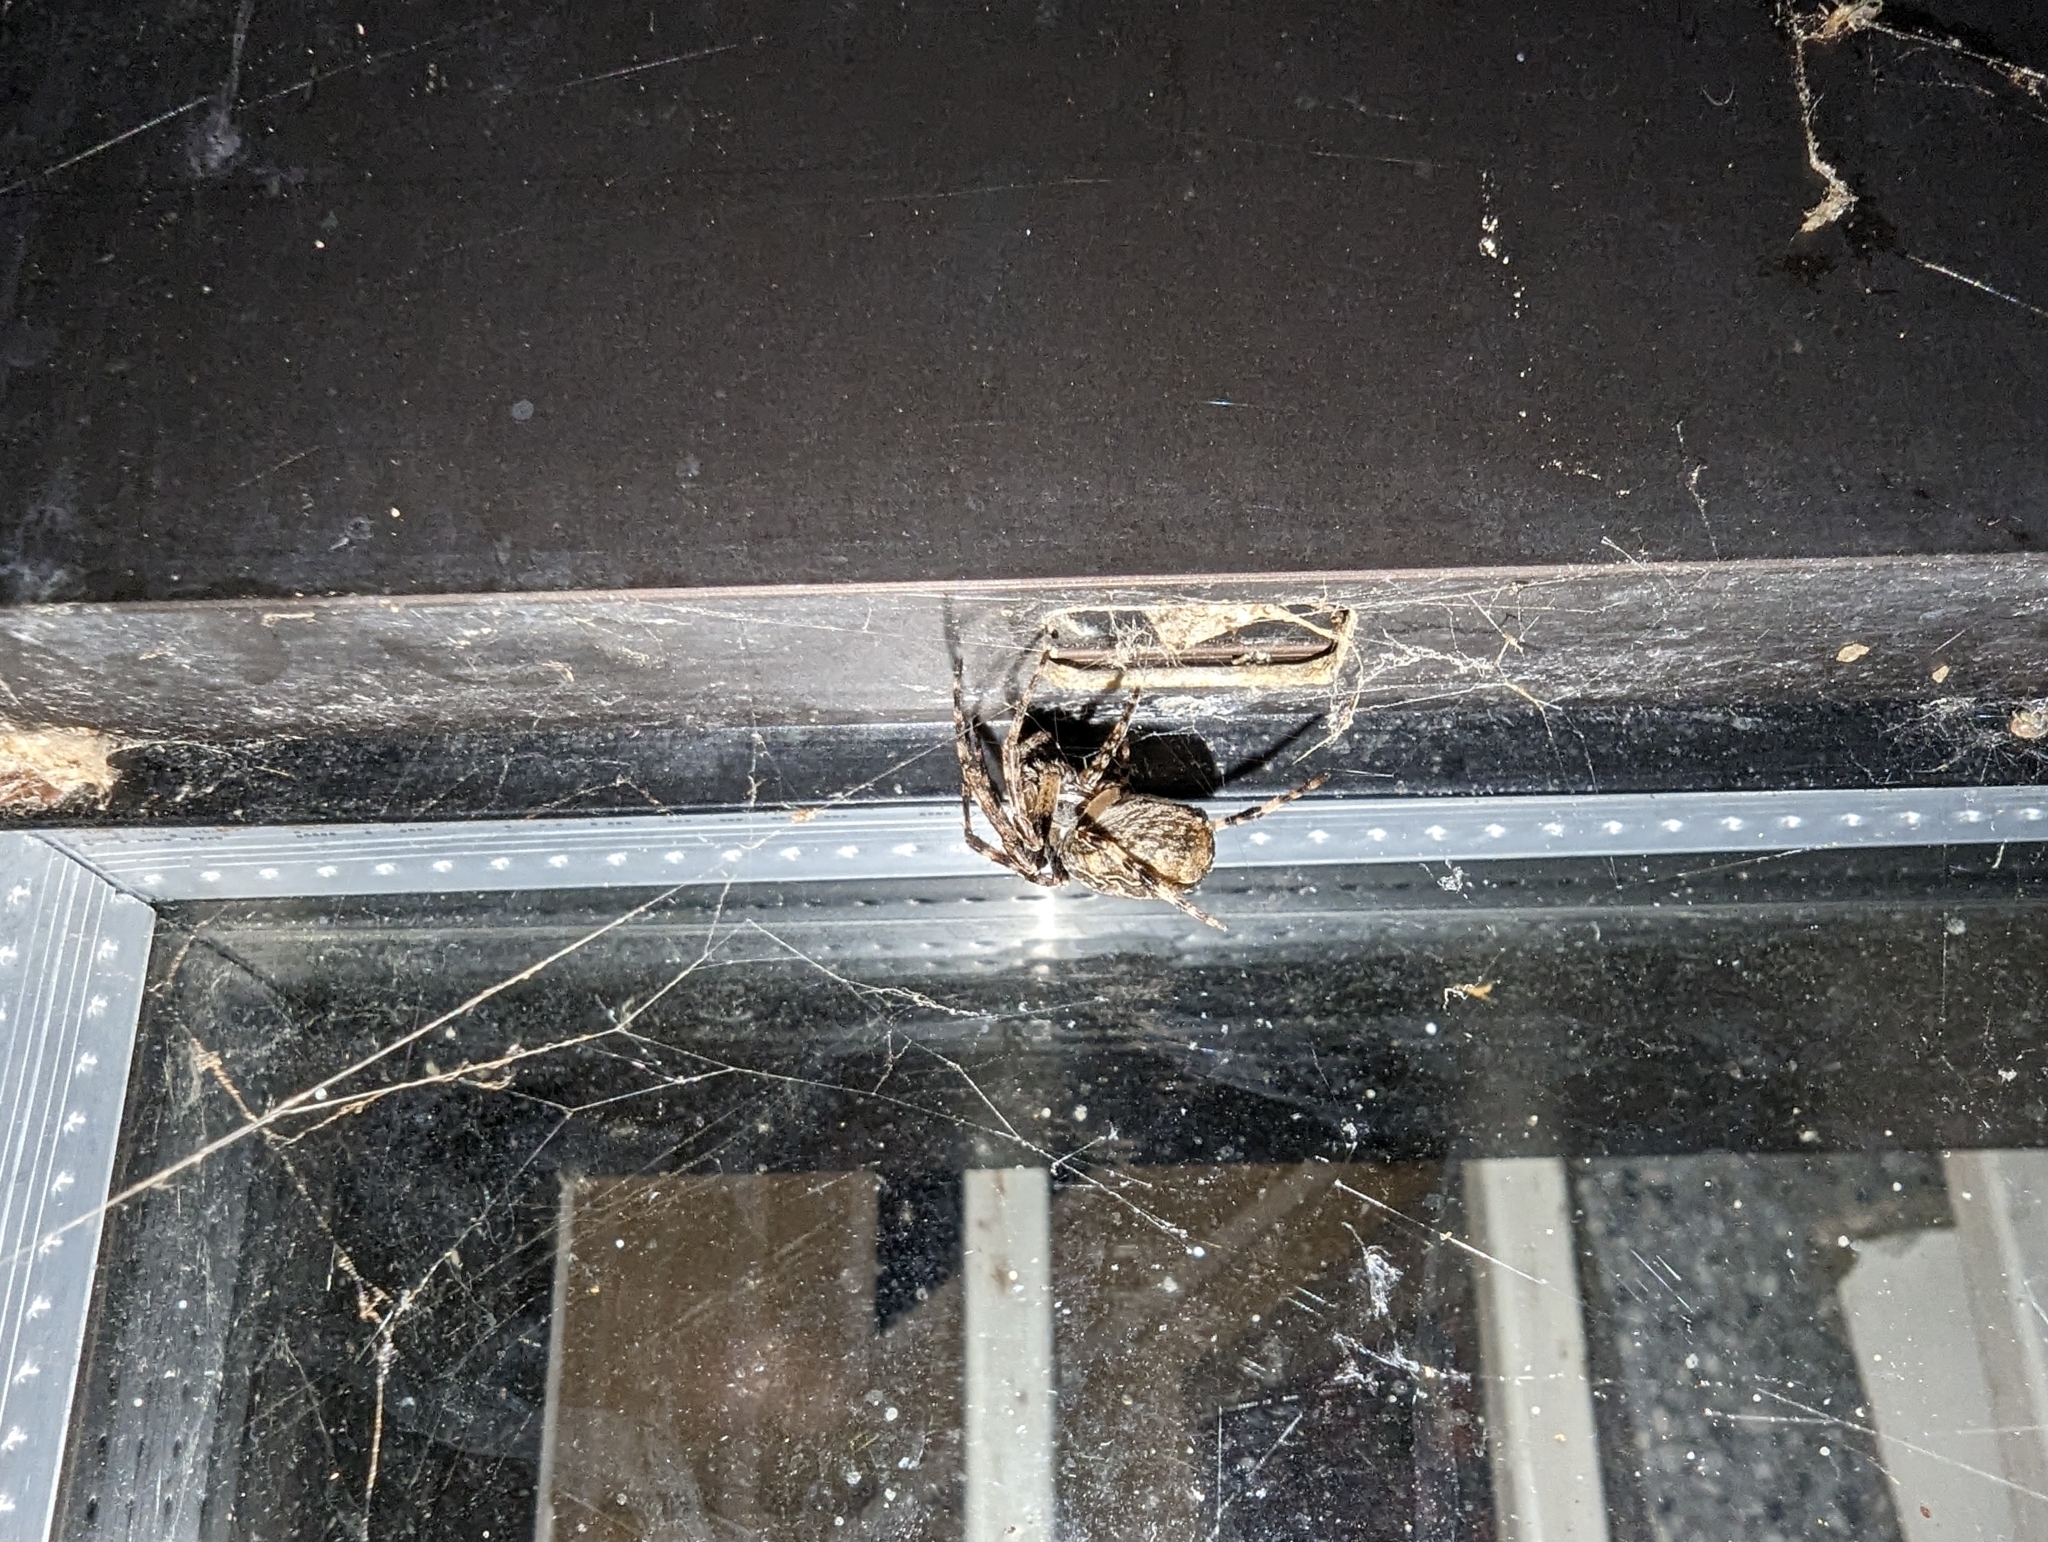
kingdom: Animalia
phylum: Arthropoda
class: Arachnida
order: Araneae
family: Araneidae
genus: Larinioides
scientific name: Larinioides sclopetarius
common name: Bridge orbweaver
